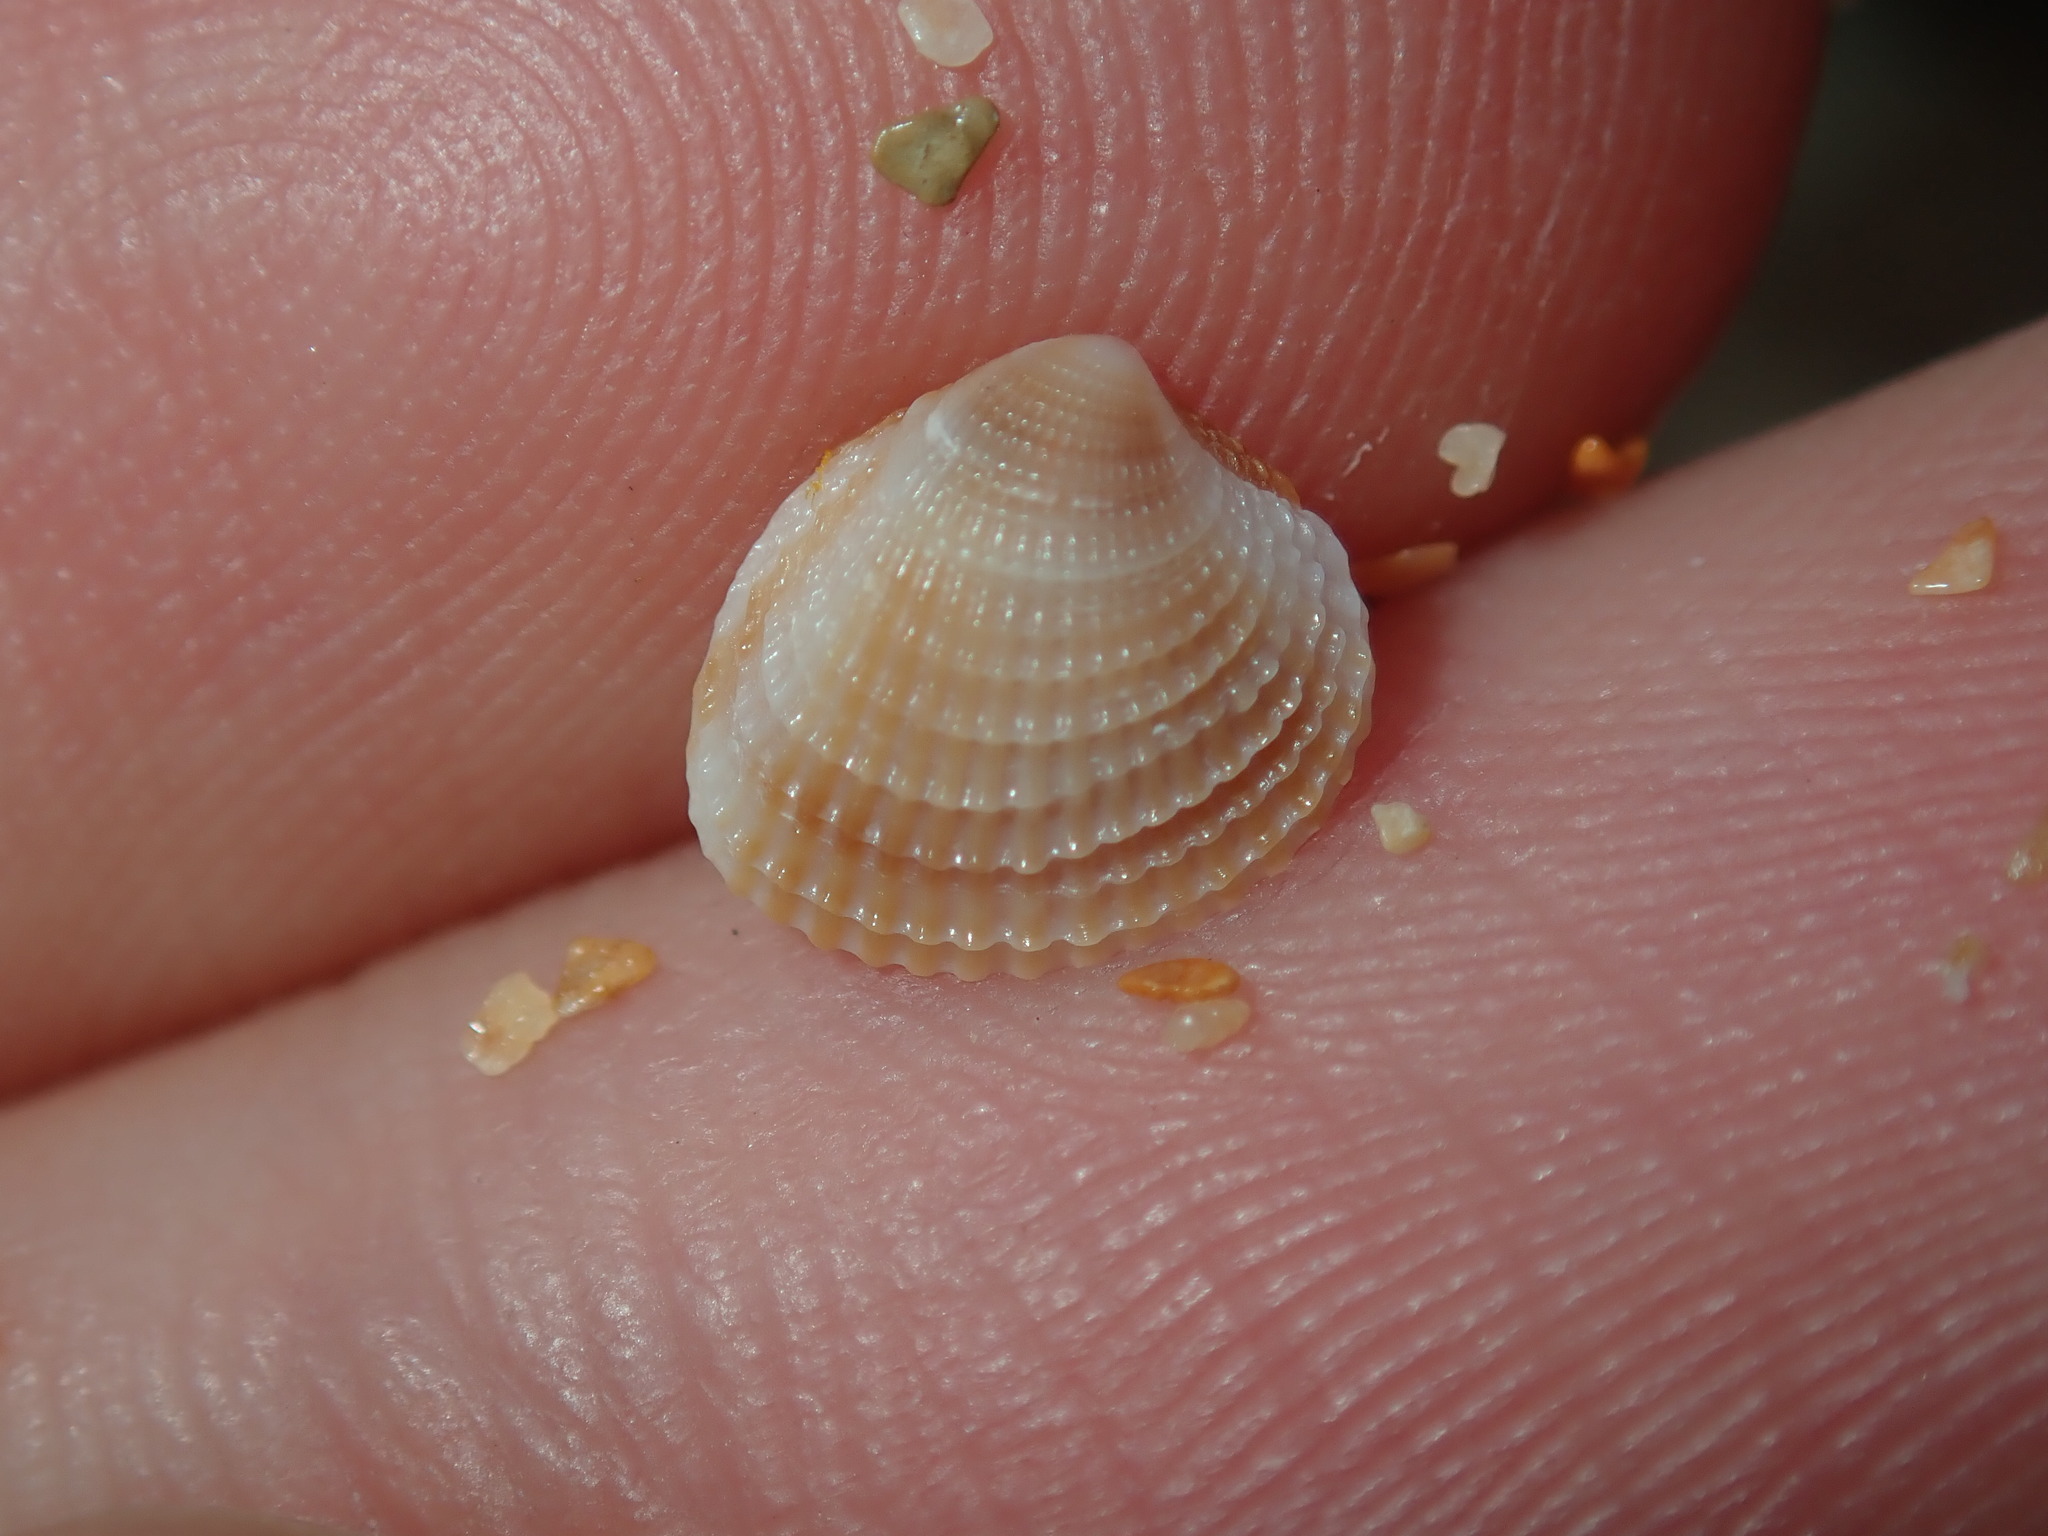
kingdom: Animalia
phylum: Mollusca
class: Bivalvia
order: Venerida
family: Veneridae
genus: Timoclea
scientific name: Timoclea scabra
